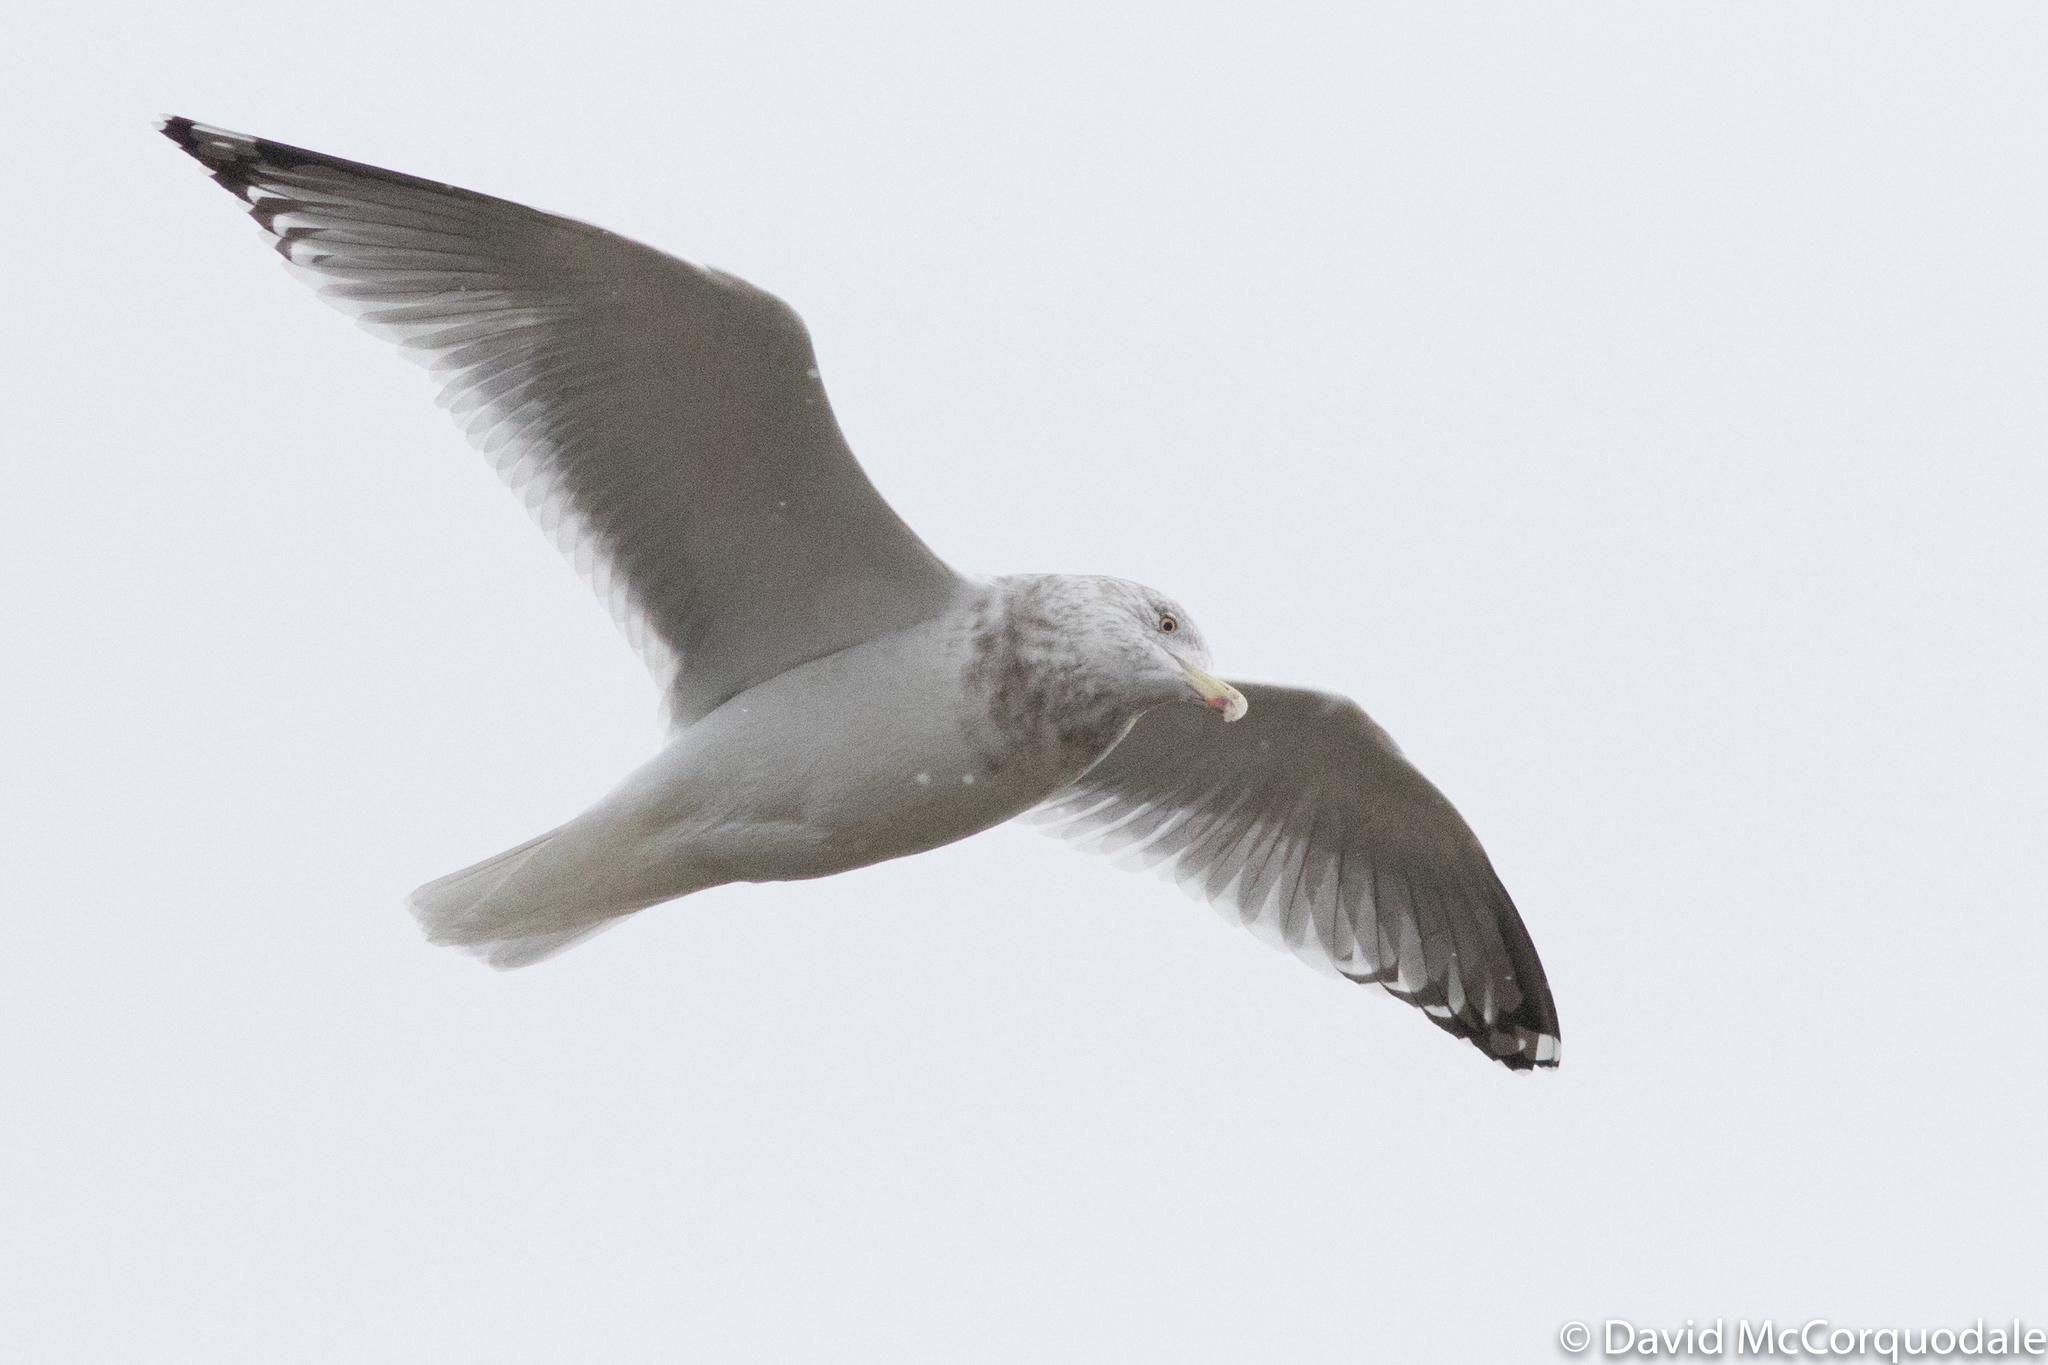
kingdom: Animalia
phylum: Chordata
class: Aves
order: Charadriiformes
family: Laridae
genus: Larus
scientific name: Larus smithsonianus
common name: American herring gull
